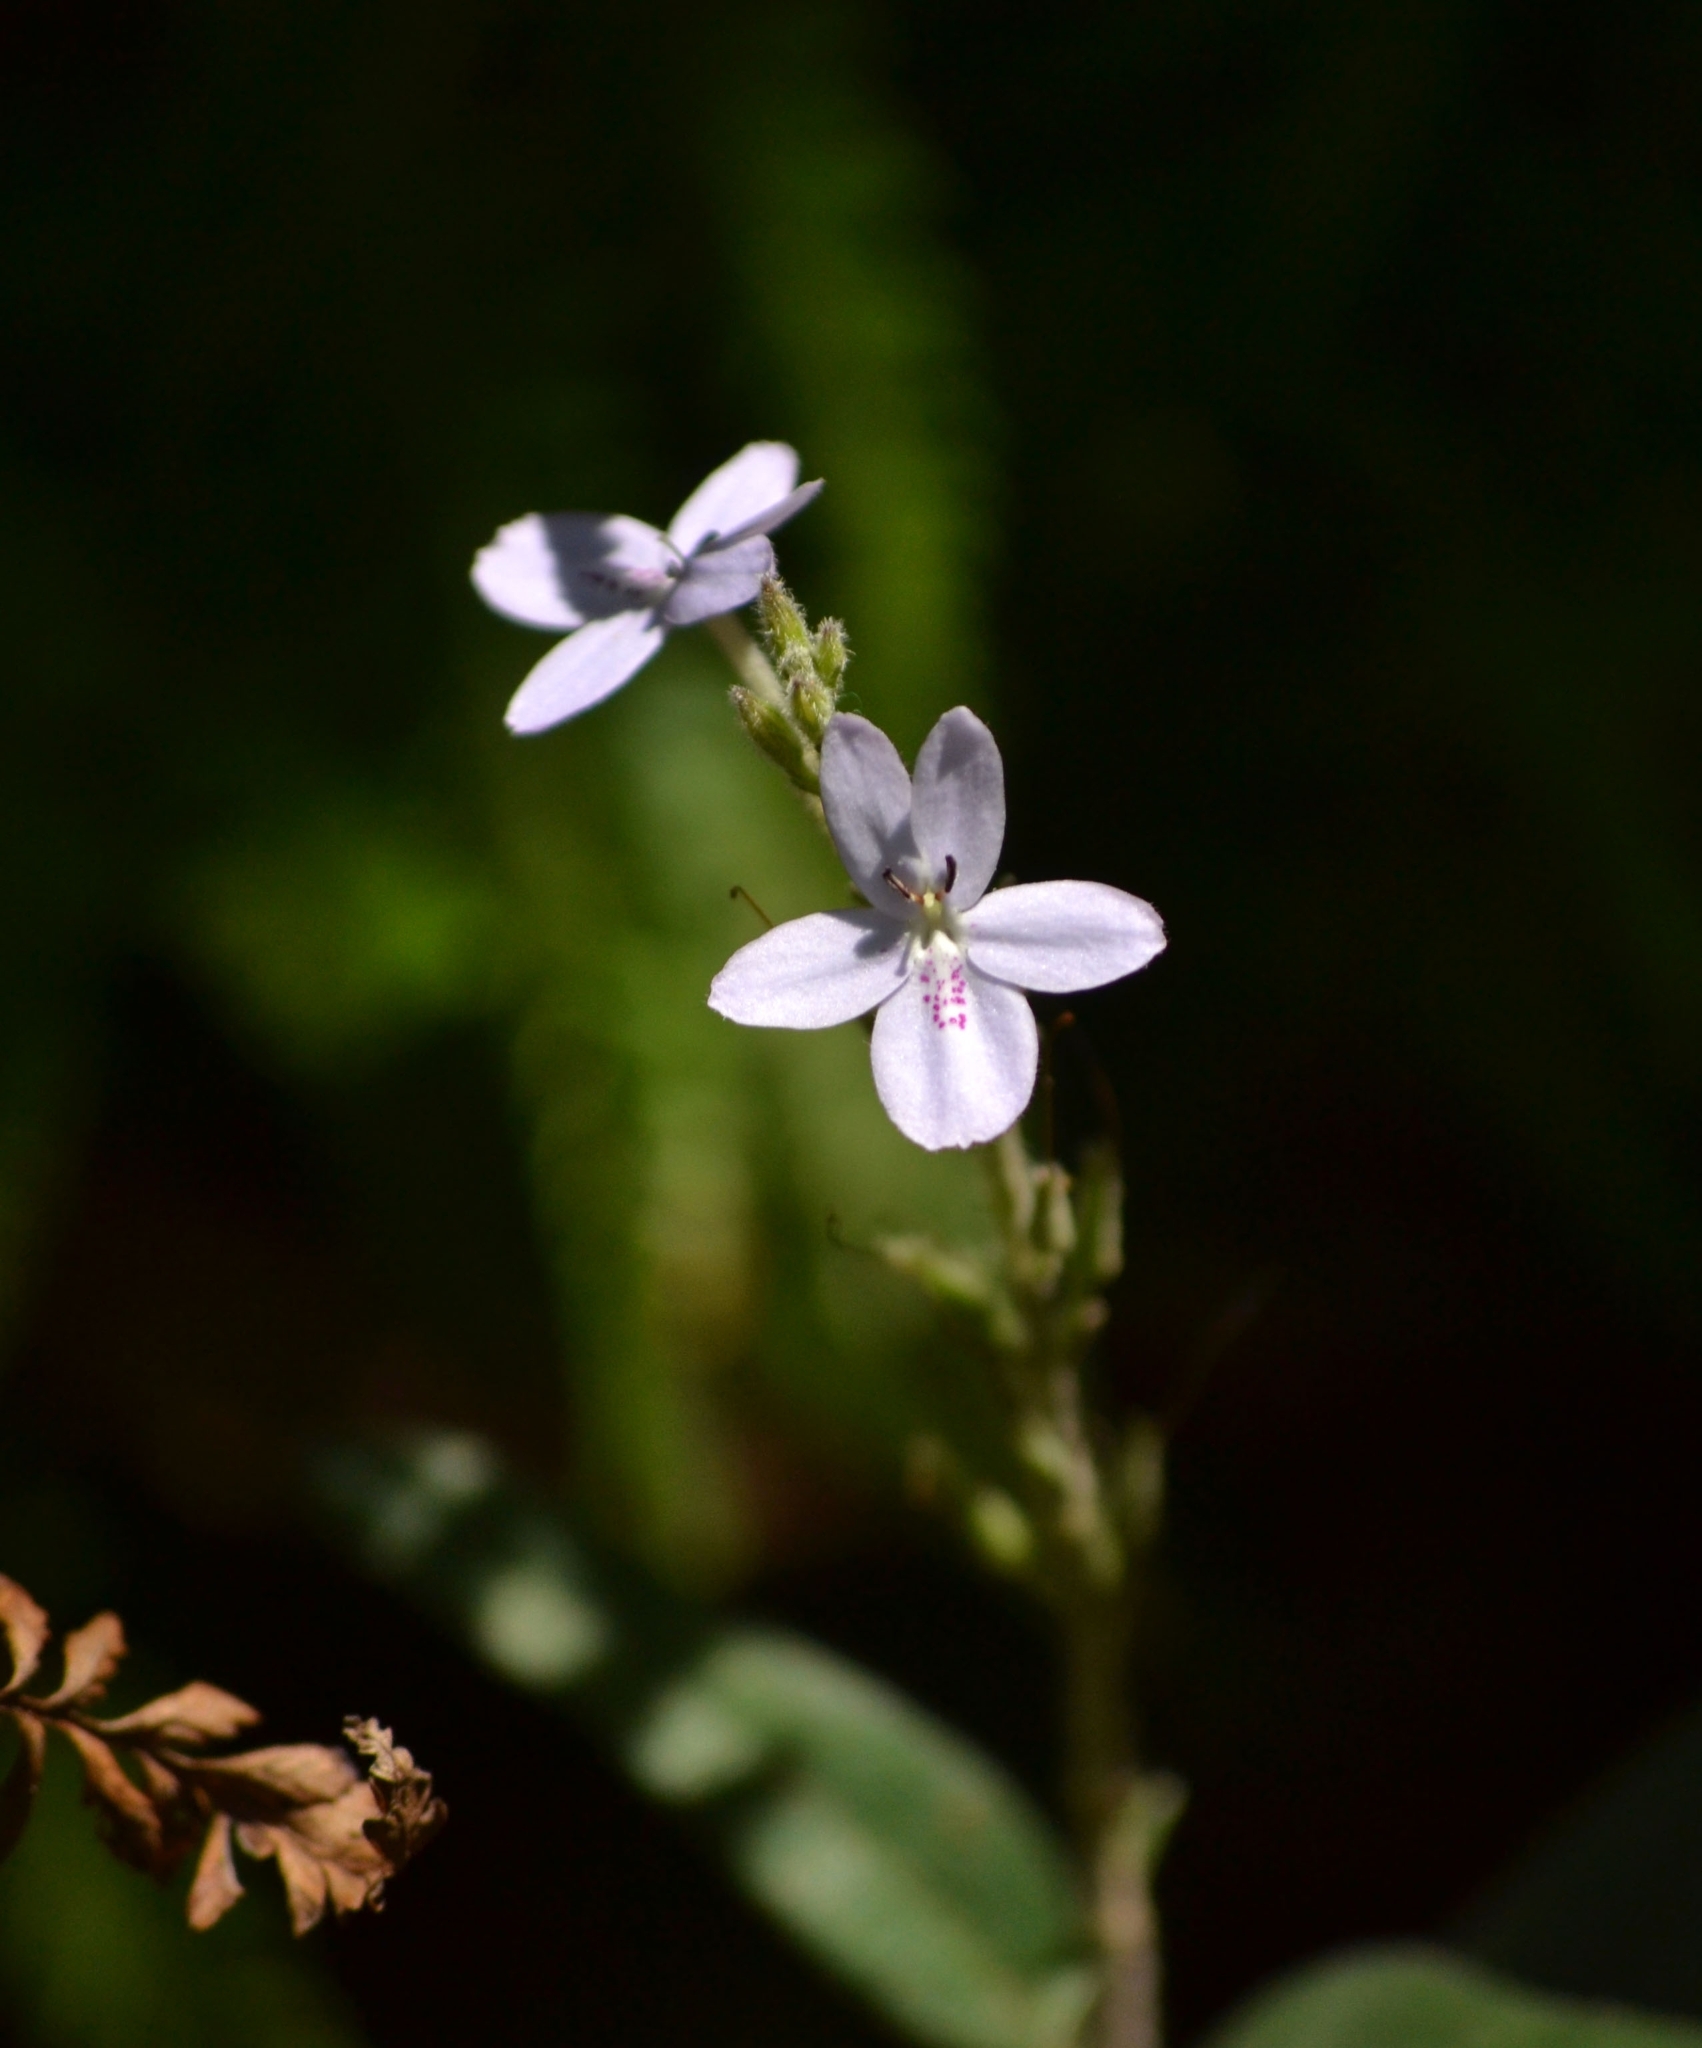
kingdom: Plantae
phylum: Tracheophyta
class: Magnoliopsida
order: Lamiales
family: Acanthaceae
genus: Pseuderanthemum
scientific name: Pseuderanthemum variabile
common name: Night and afternoon
